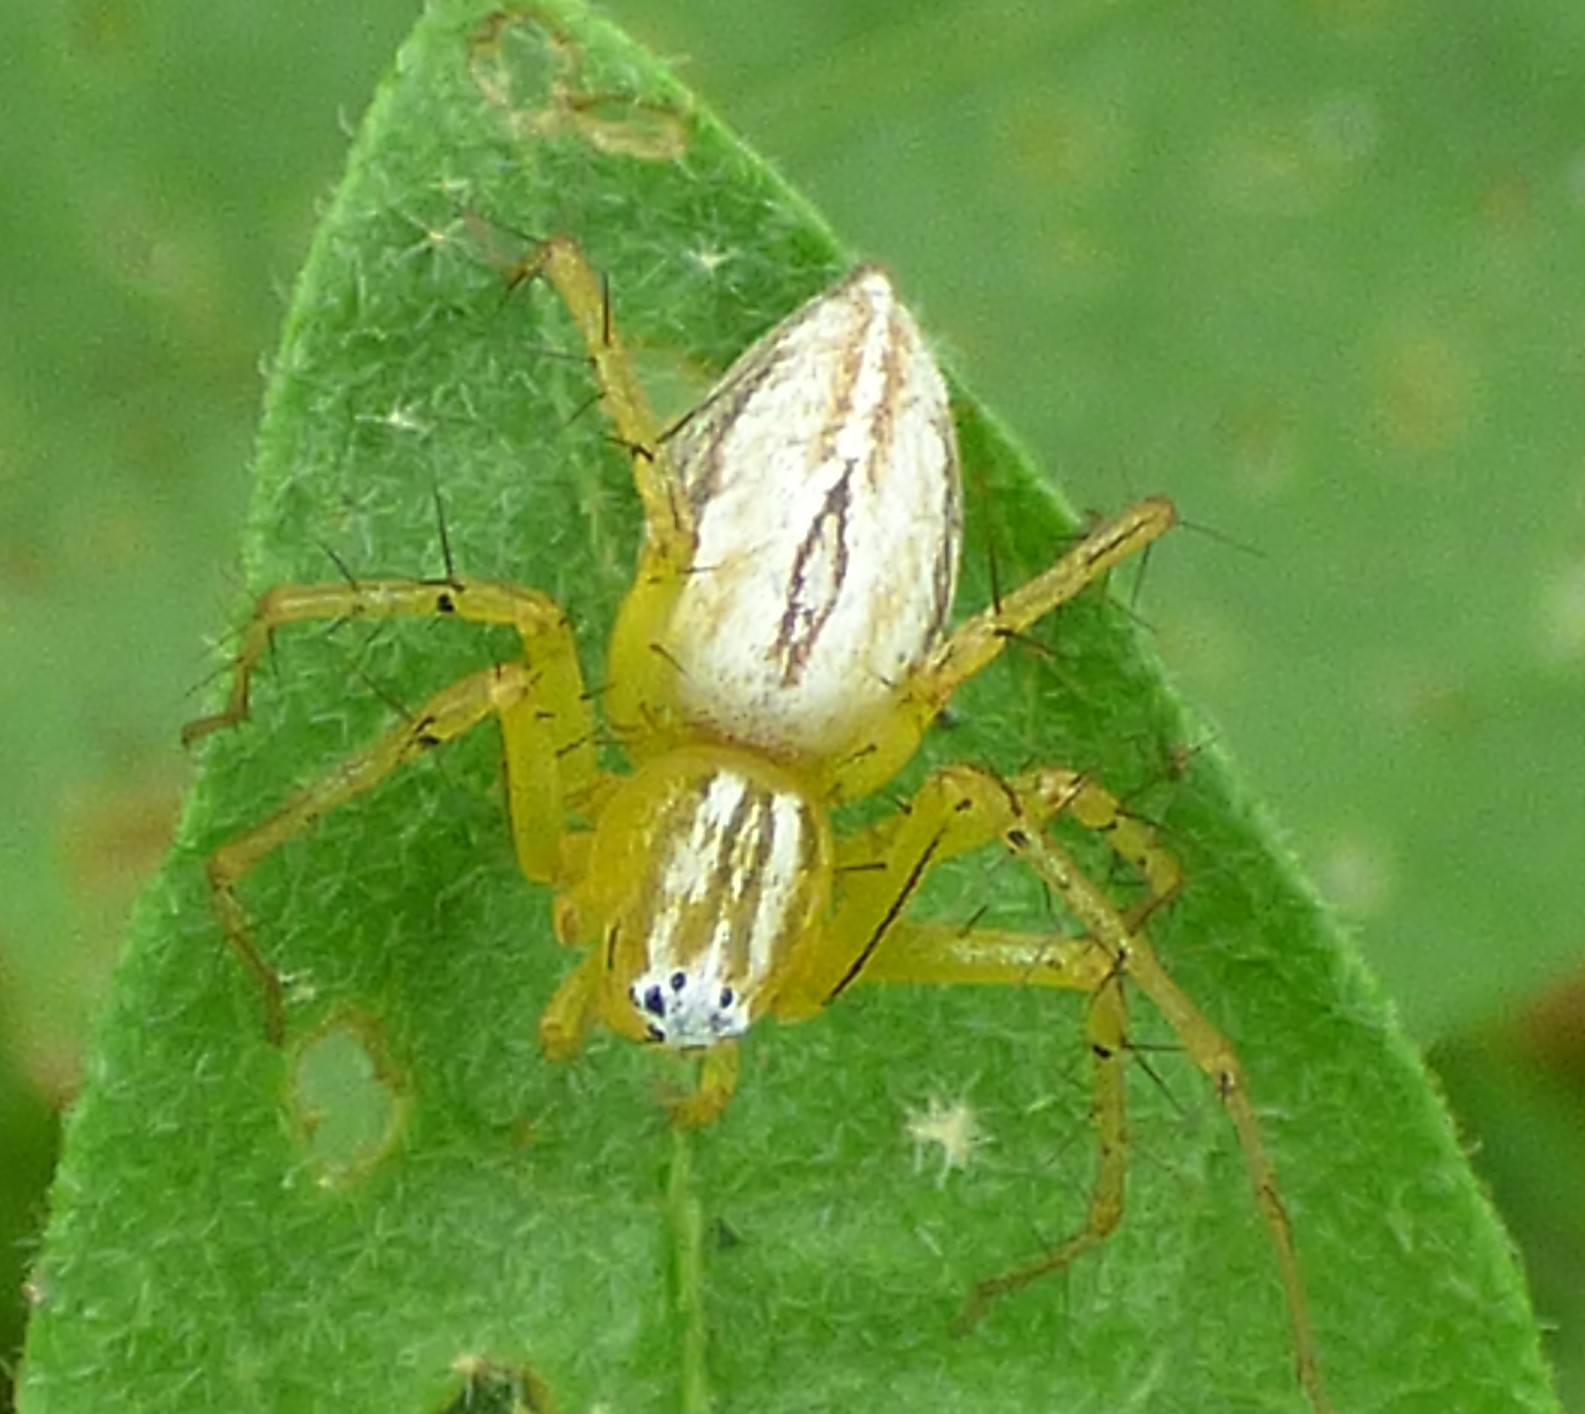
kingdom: Animalia
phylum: Arthropoda
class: Arachnida
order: Araneae
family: Oxyopidae
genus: Oxyopes
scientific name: Oxyopes salticus
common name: Lynx spiders
